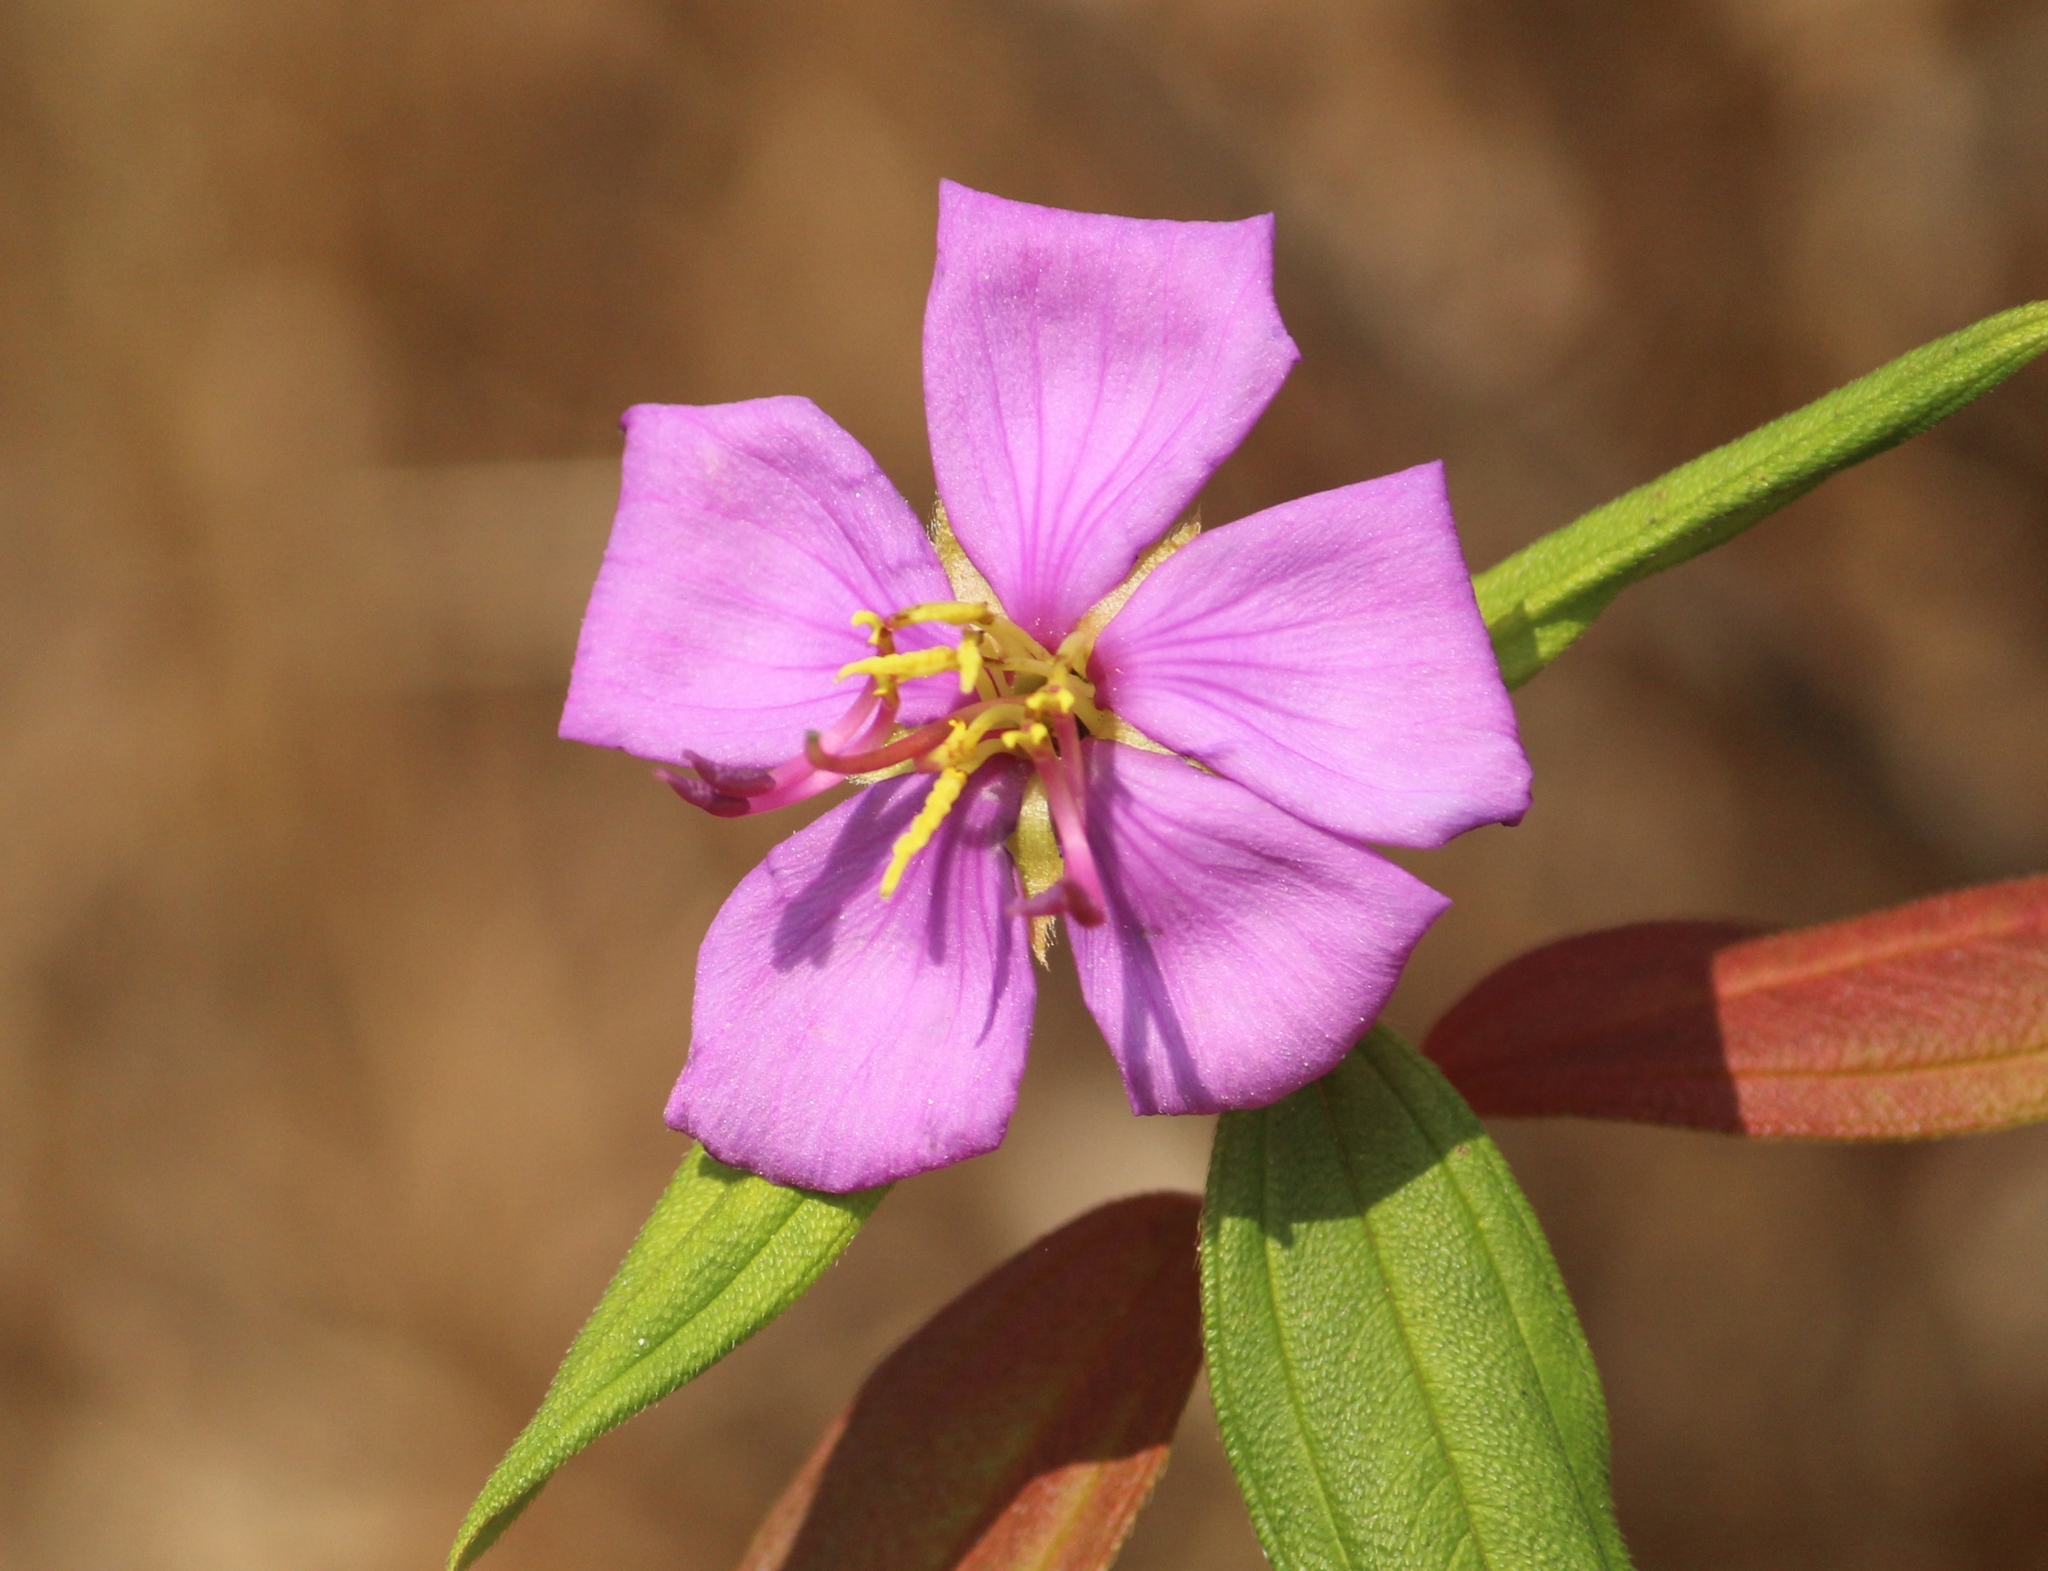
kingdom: Plantae
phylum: Tracheophyta
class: Magnoliopsida
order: Myrtales
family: Melastomataceae
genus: Melastoma
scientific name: Melastoma malabathricum
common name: Indian-rhododendron
